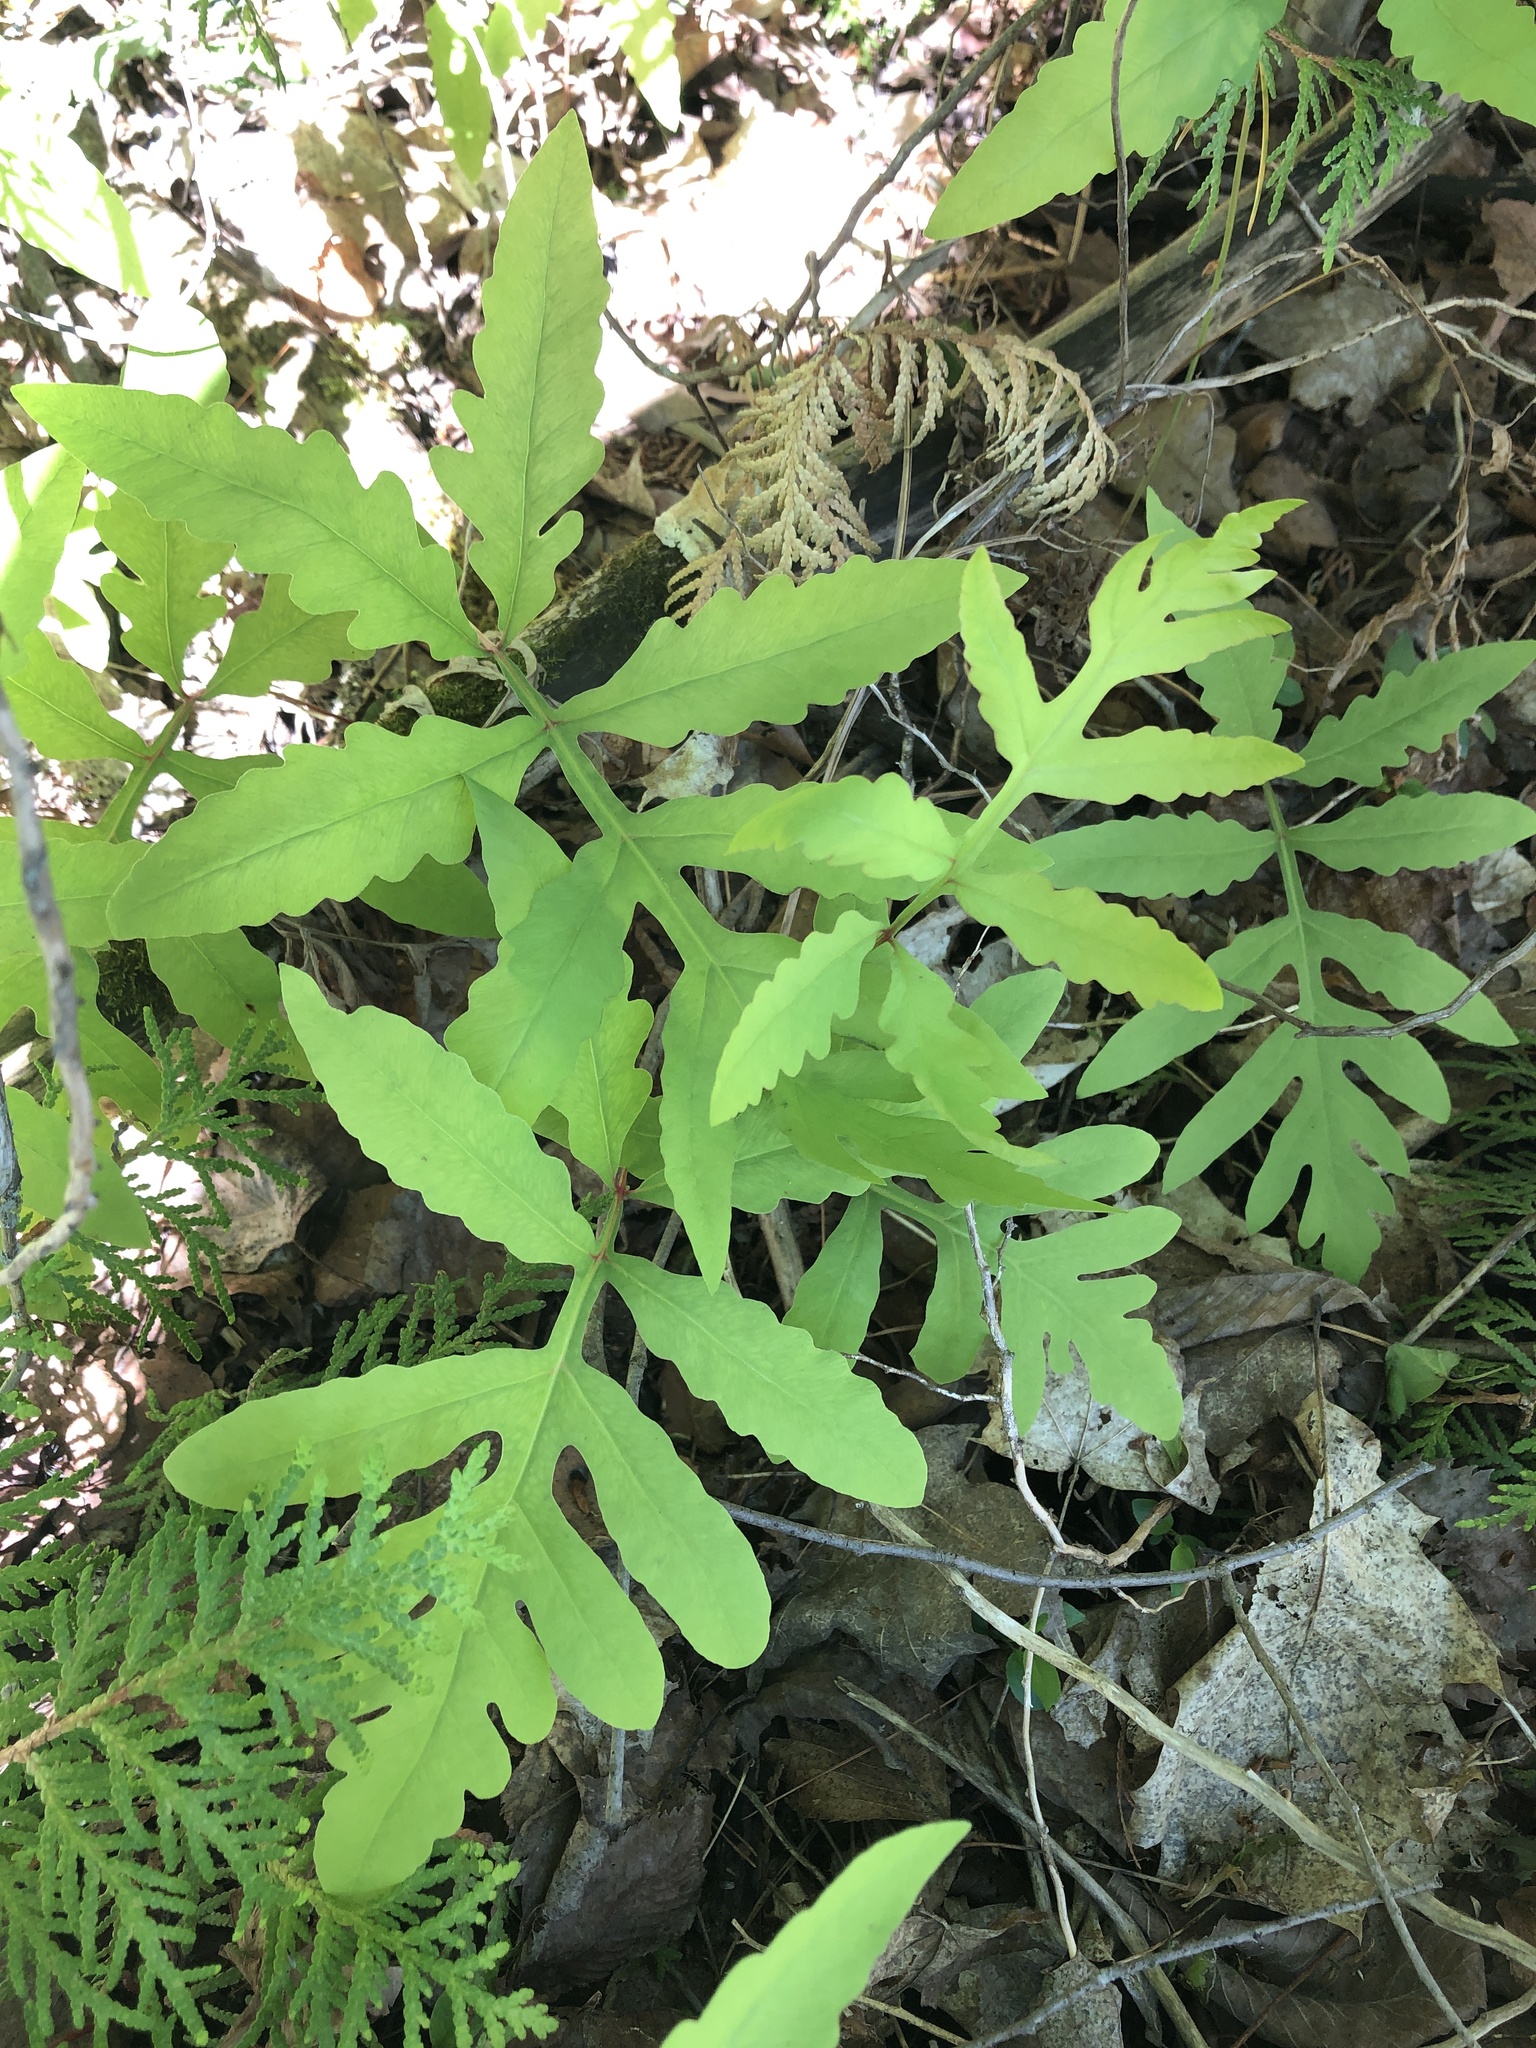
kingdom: Plantae
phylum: Tracheophyta
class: Polypodiopsida
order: Polypodiales
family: Onocleaceae
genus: Onoclea
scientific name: Onoclea sensibilis
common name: Sensitive fern
